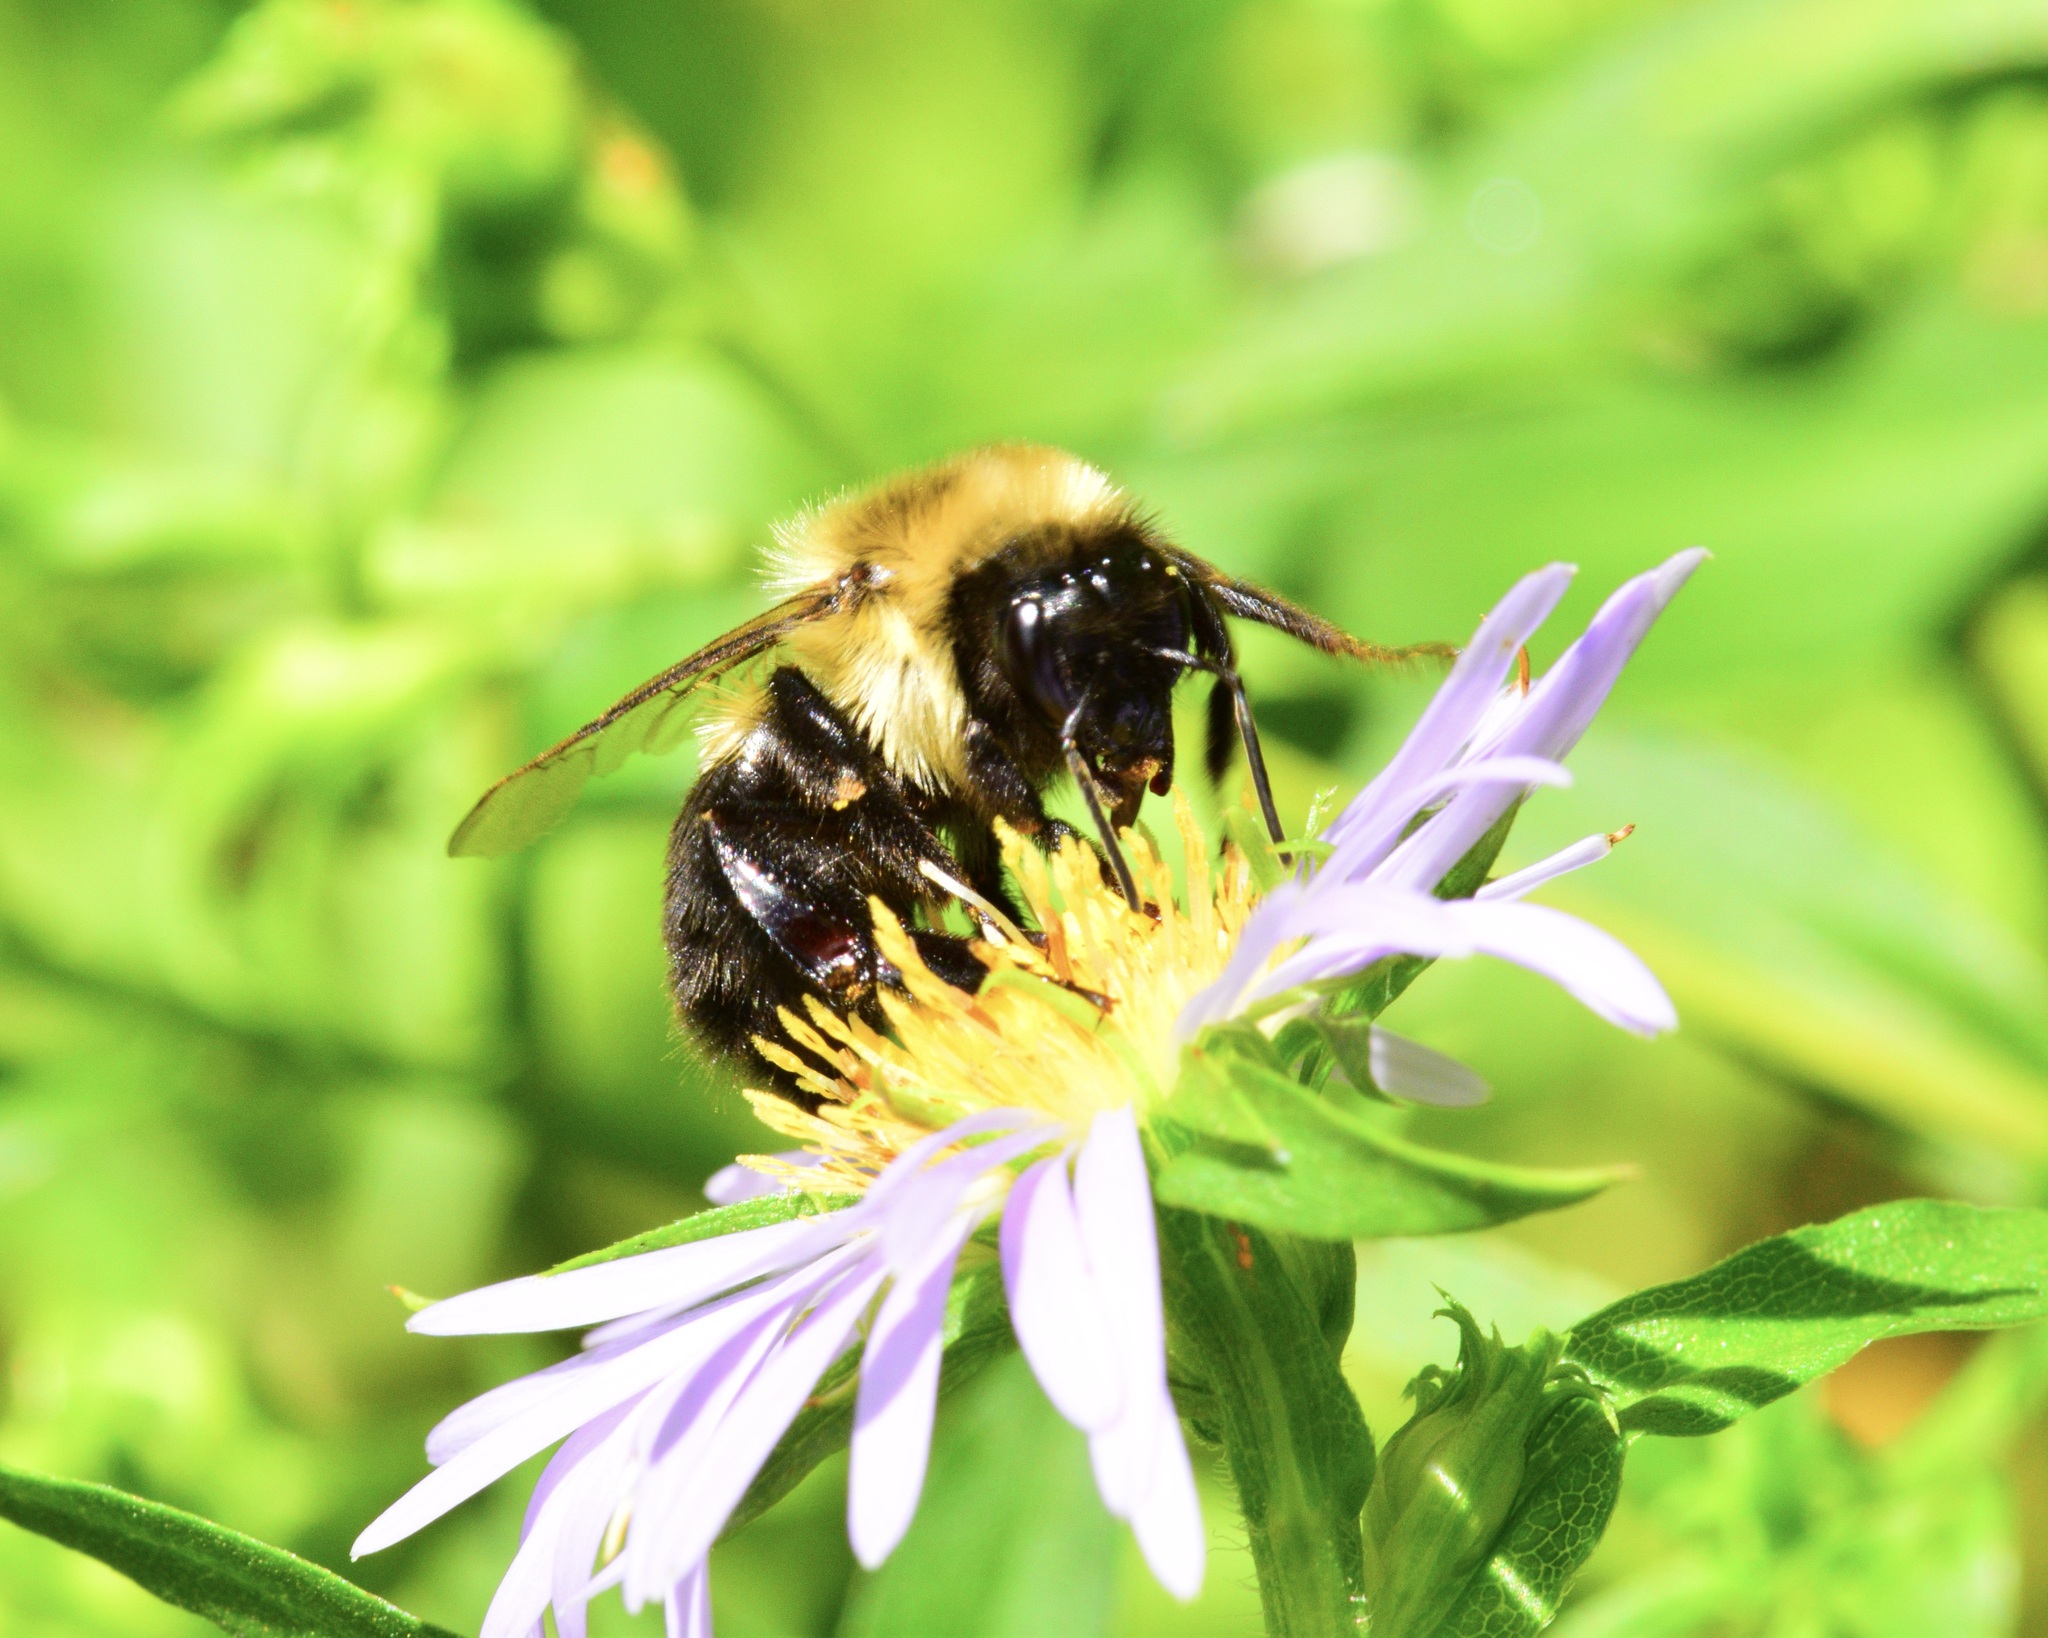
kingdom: Animalia
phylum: Arthropoda
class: Insecta
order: Hymenoptera
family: Apidae
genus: Bombus
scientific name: Bombus impatiens
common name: Common eastern bumble bee
